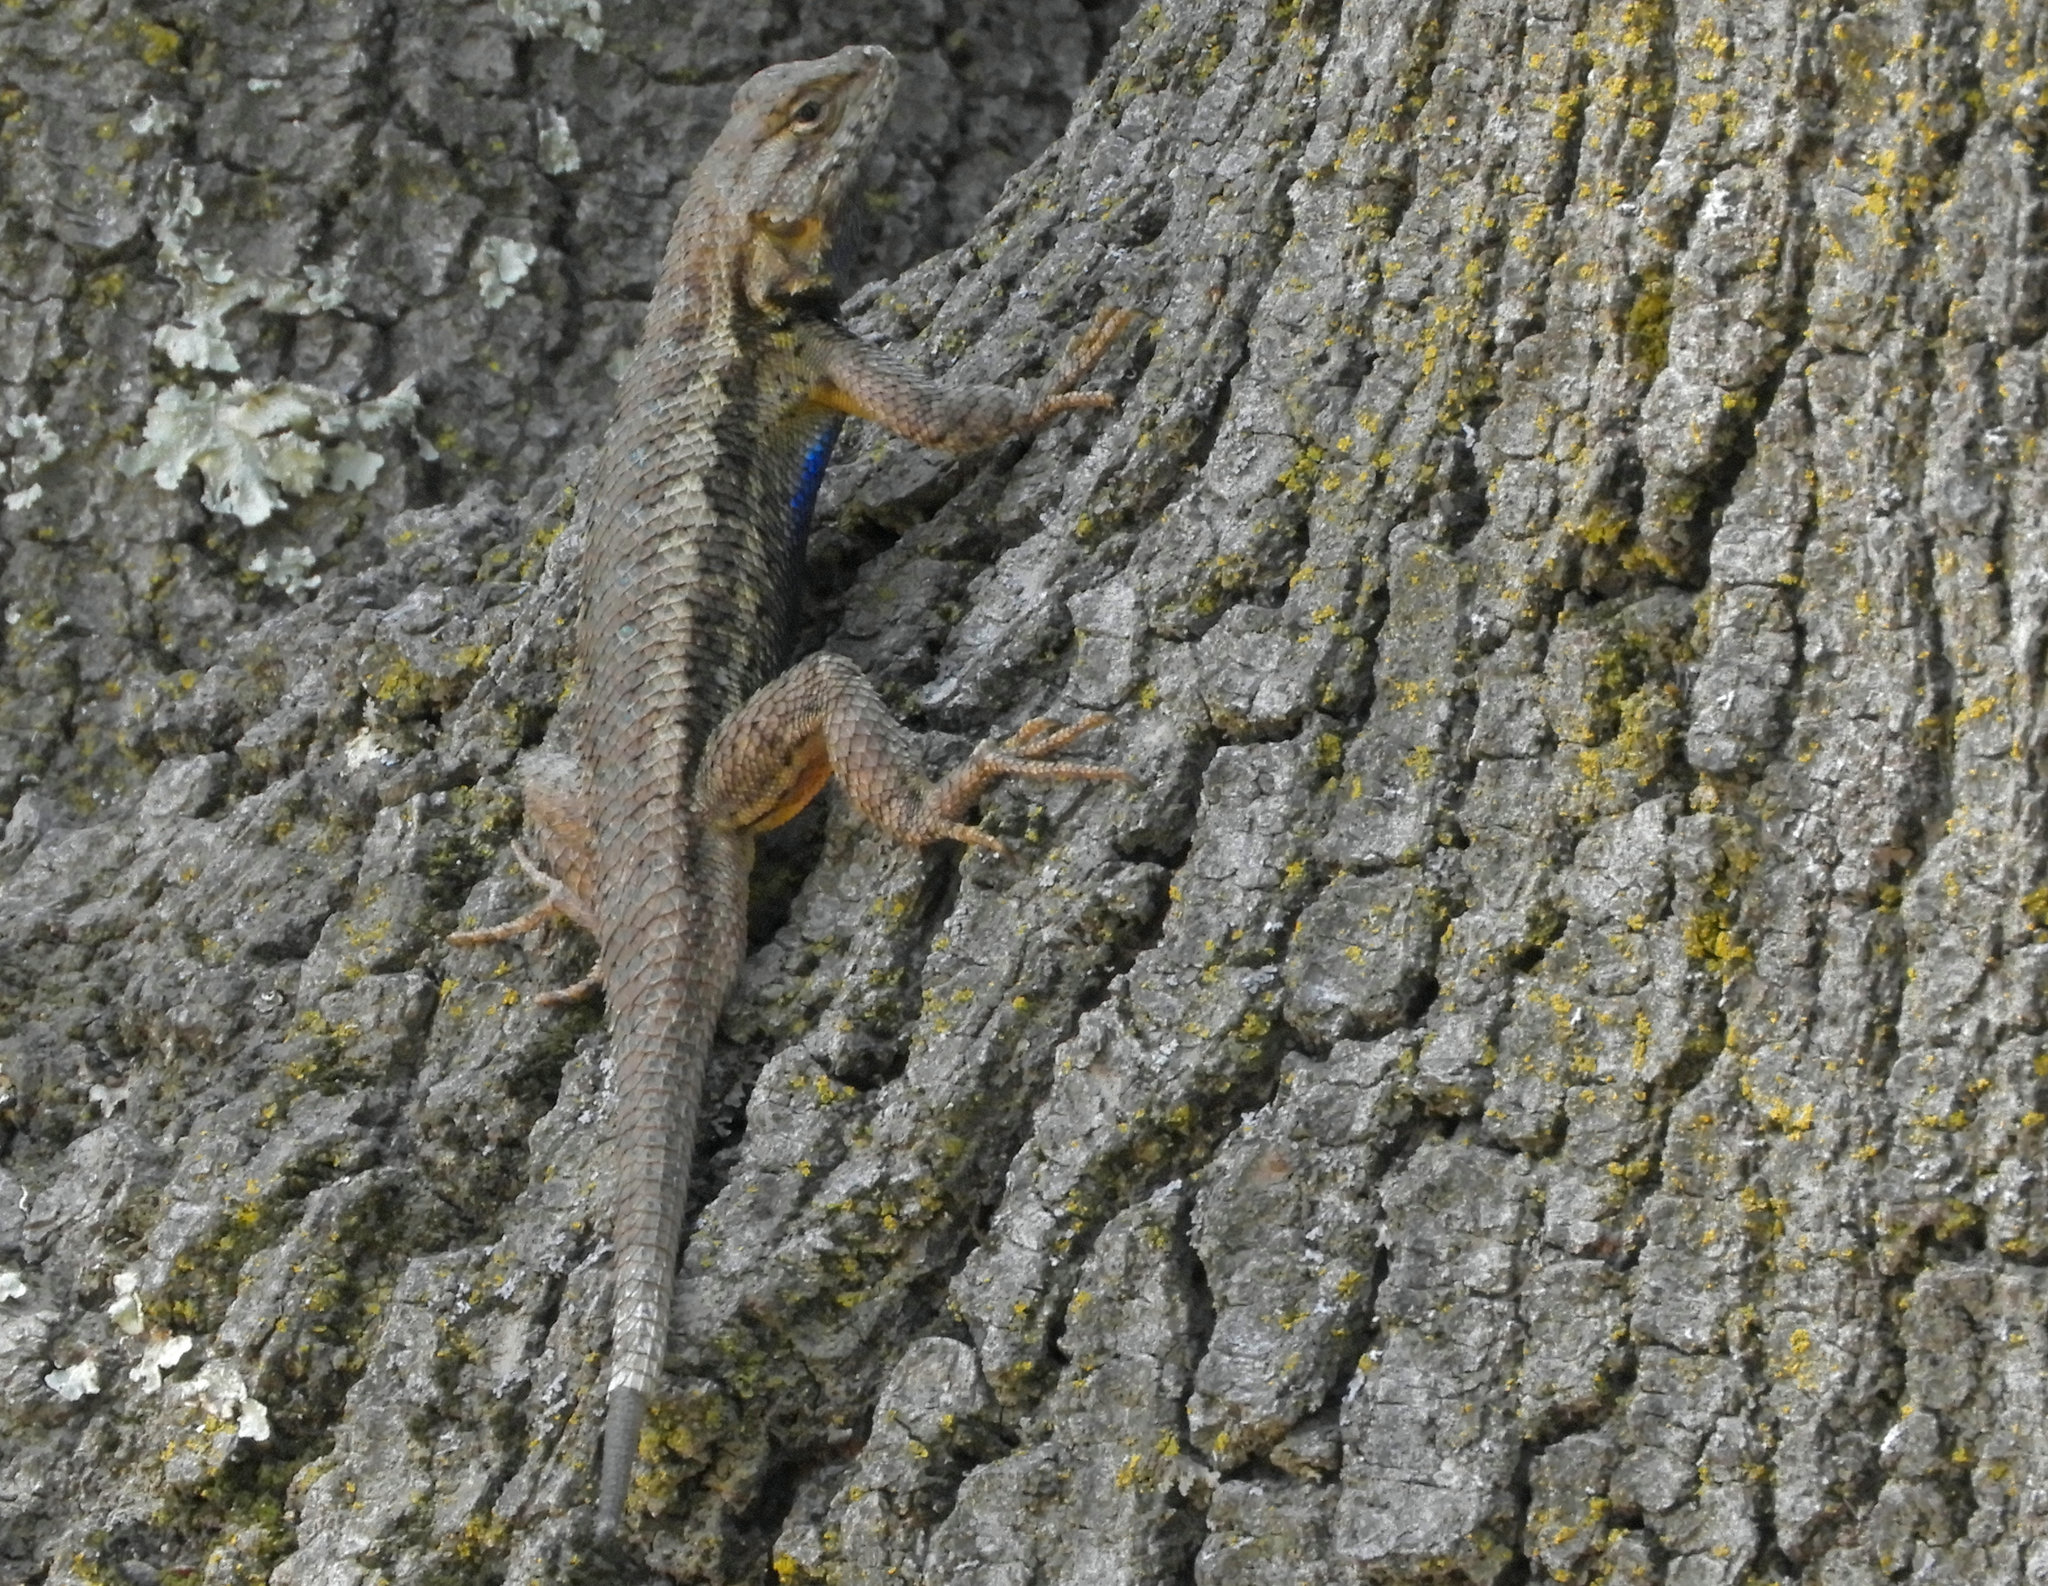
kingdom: Animalia
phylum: Chordata
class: Squamata
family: Phrynosomatidae
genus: Sceloporus
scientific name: Sceloporus occidentalis
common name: Western fence lizard
